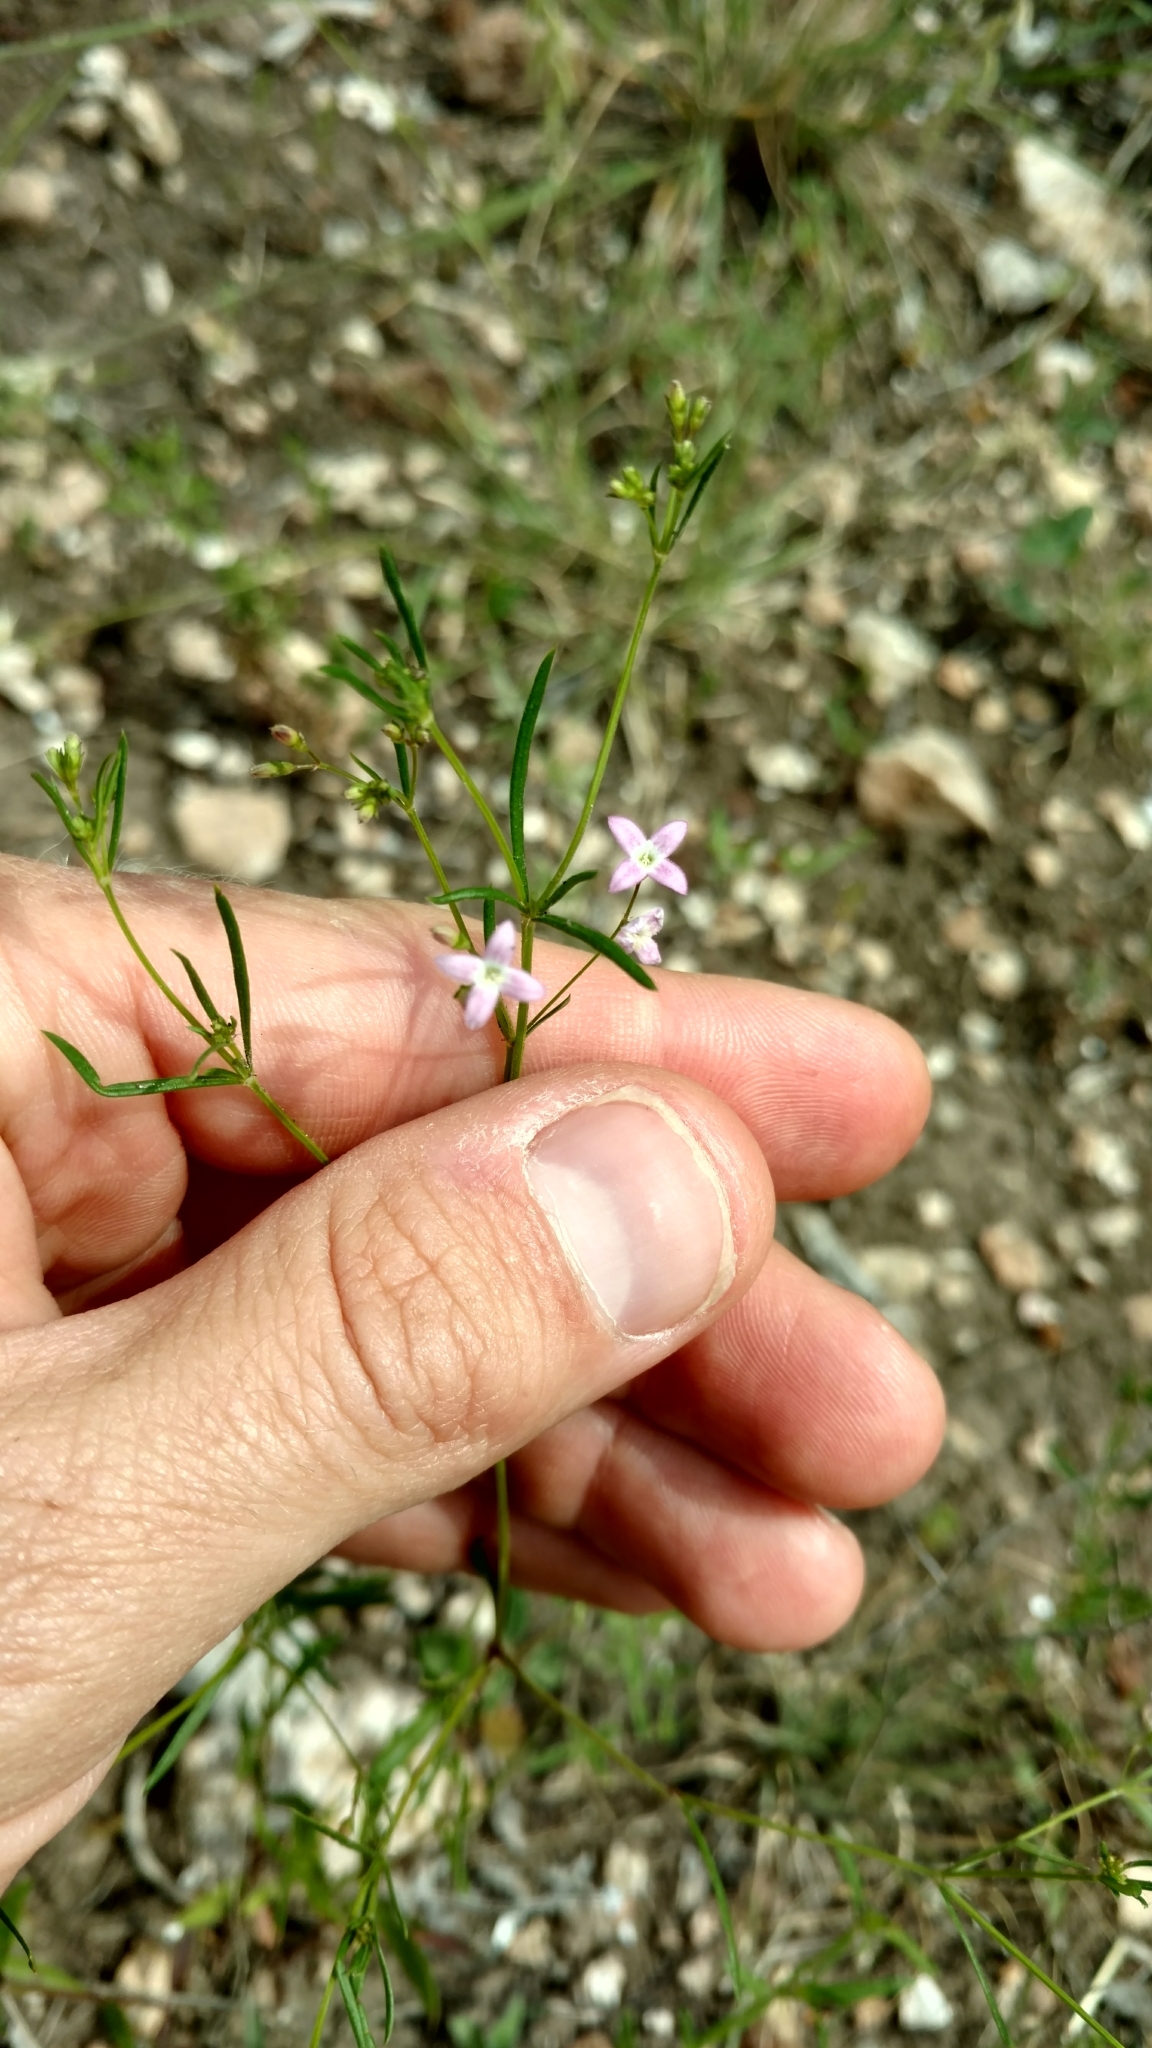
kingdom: Plantae
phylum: Tracheophyta
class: Magnoliopsida
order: Gentianales
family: Rubiaceae
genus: Stenaria
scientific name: Stenaria nigricans
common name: Diamondflowers
